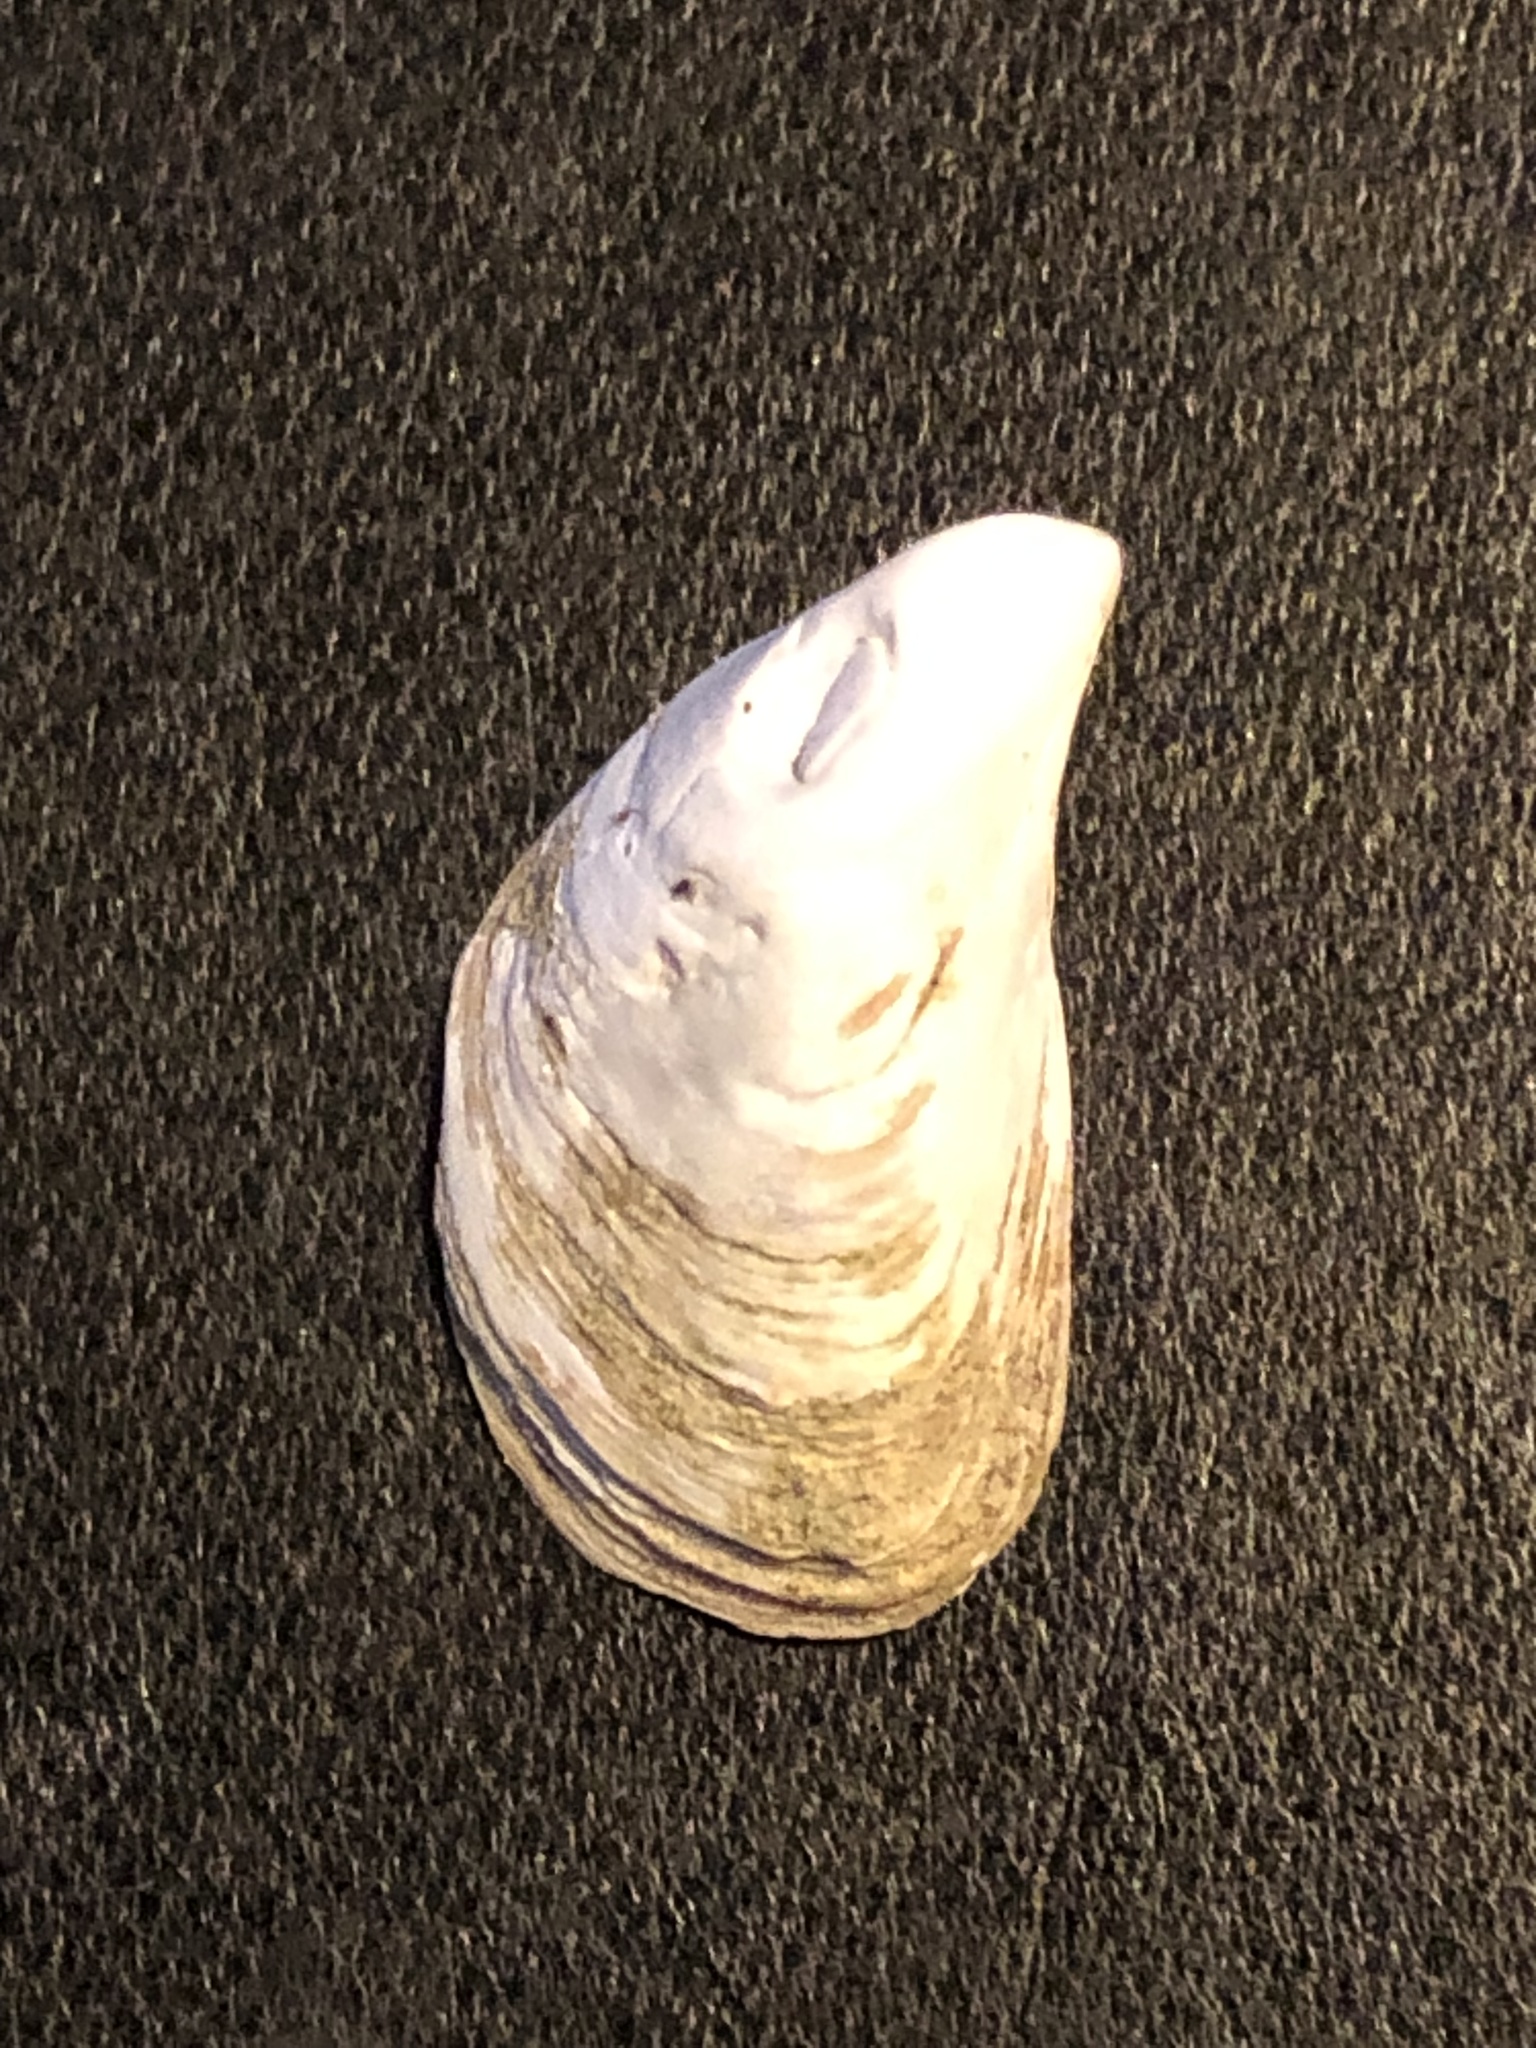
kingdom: Animalia
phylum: Mollusca
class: Bivalvia
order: Myida
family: Dreissenidae
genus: Dreissena
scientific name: Dreissena bugensis
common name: Quagga mussel
